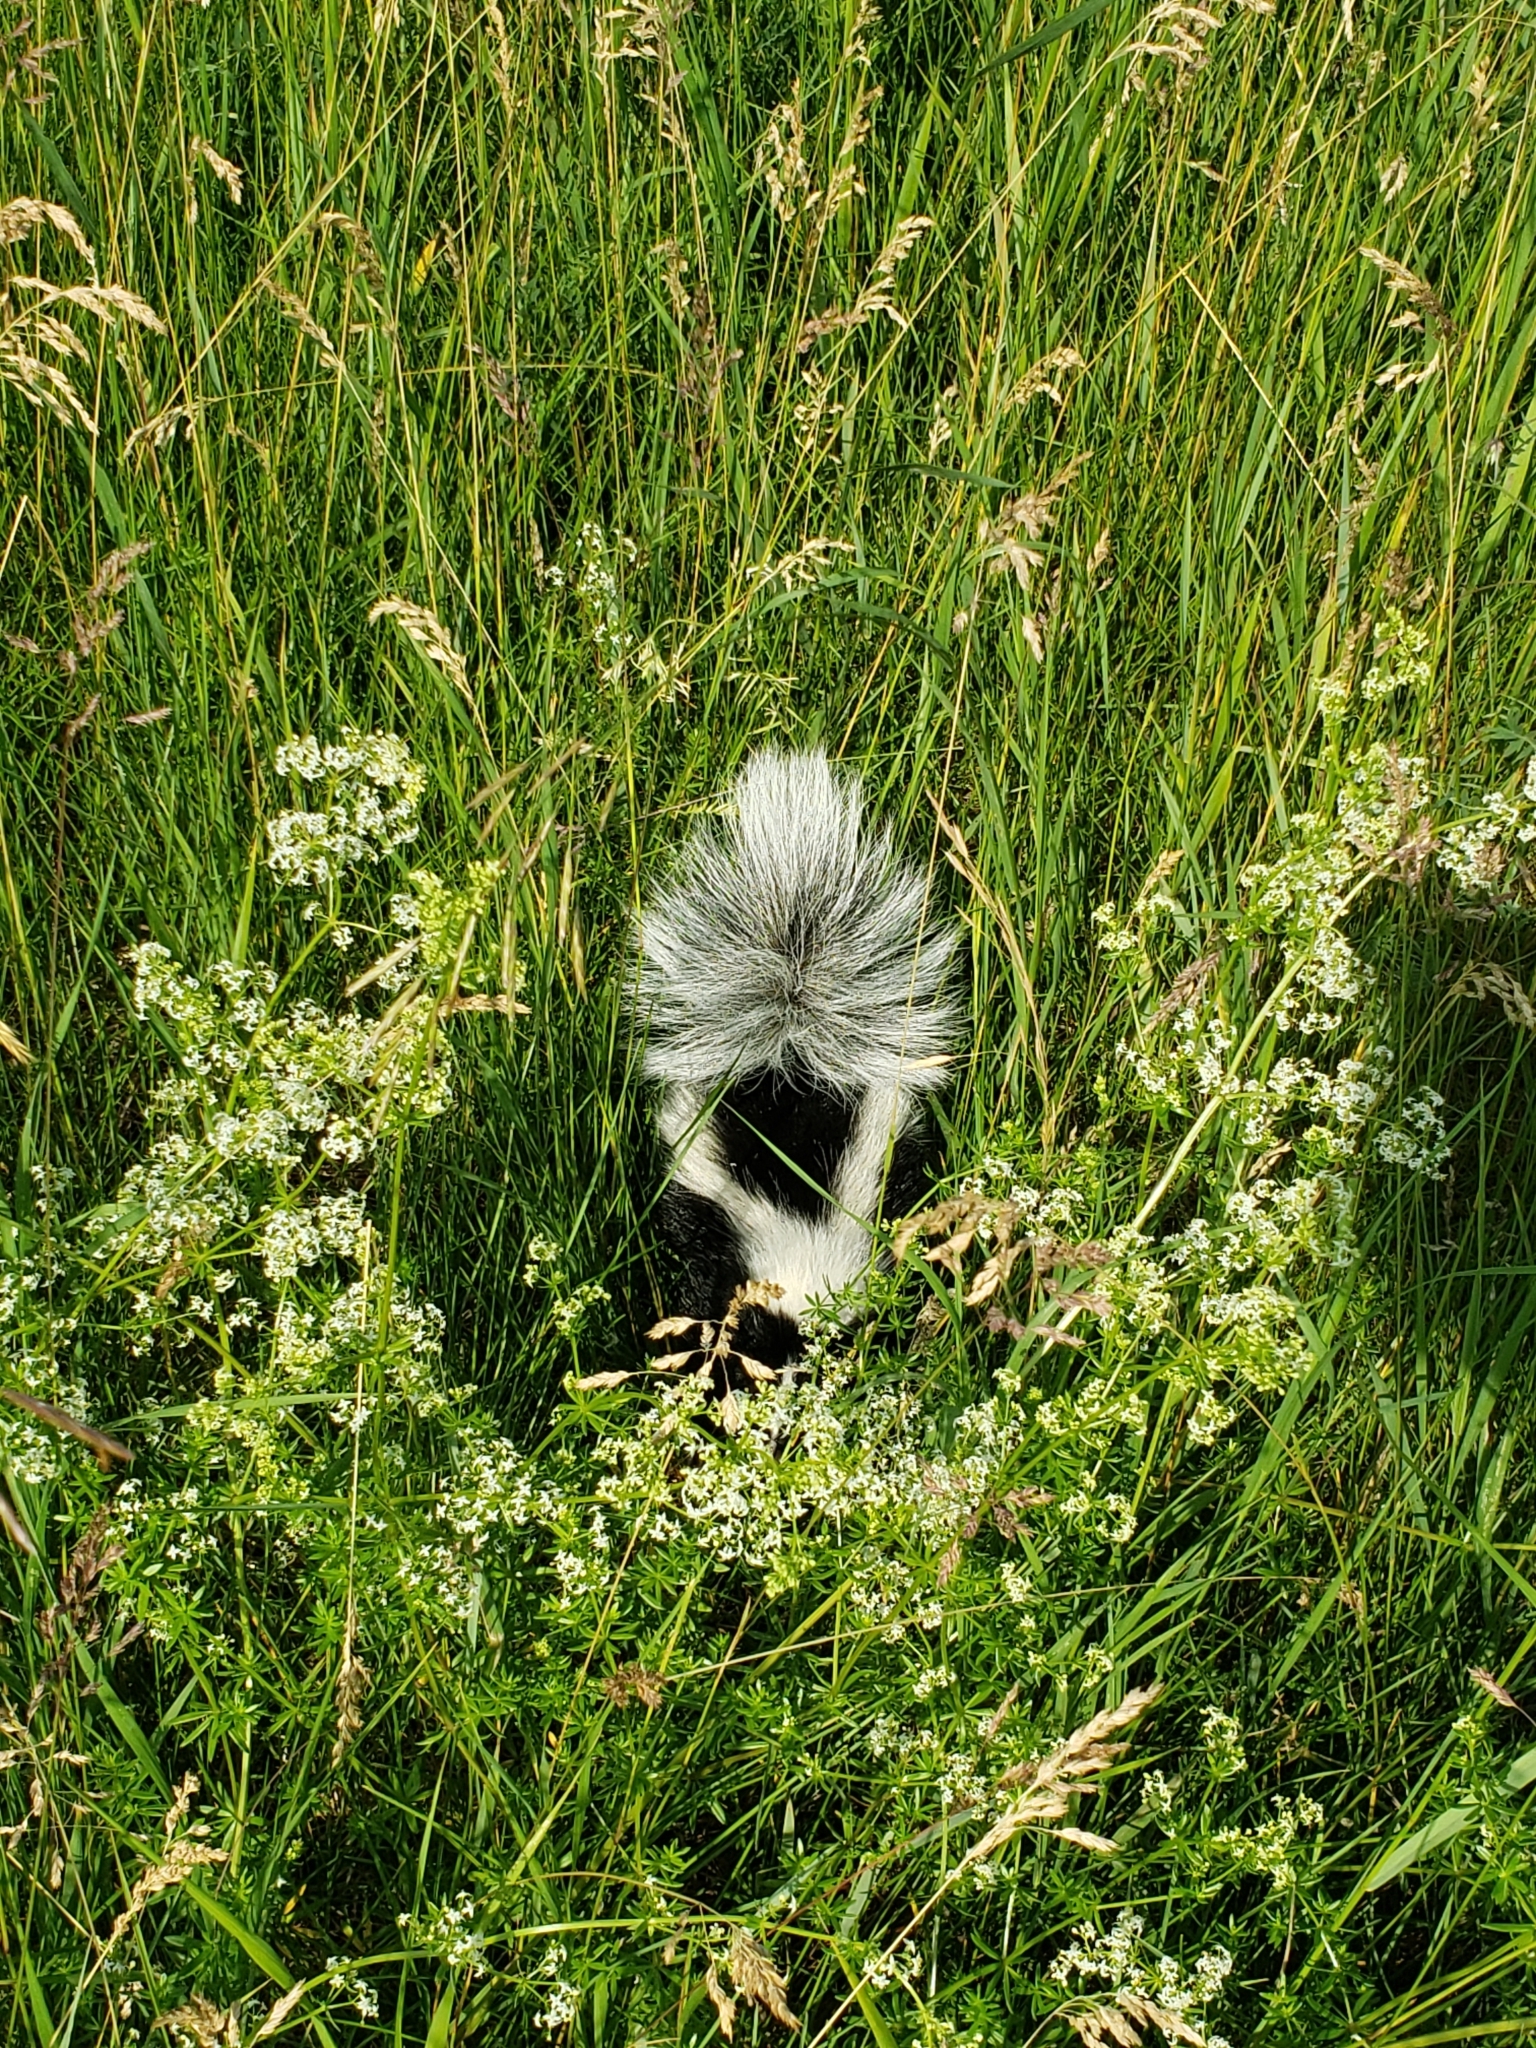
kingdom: Animalia
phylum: Chordata
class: Mammalia
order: Carnivora
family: Mephitidae
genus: Mephitis
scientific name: Mephitis mephitis
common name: Striped skunk
